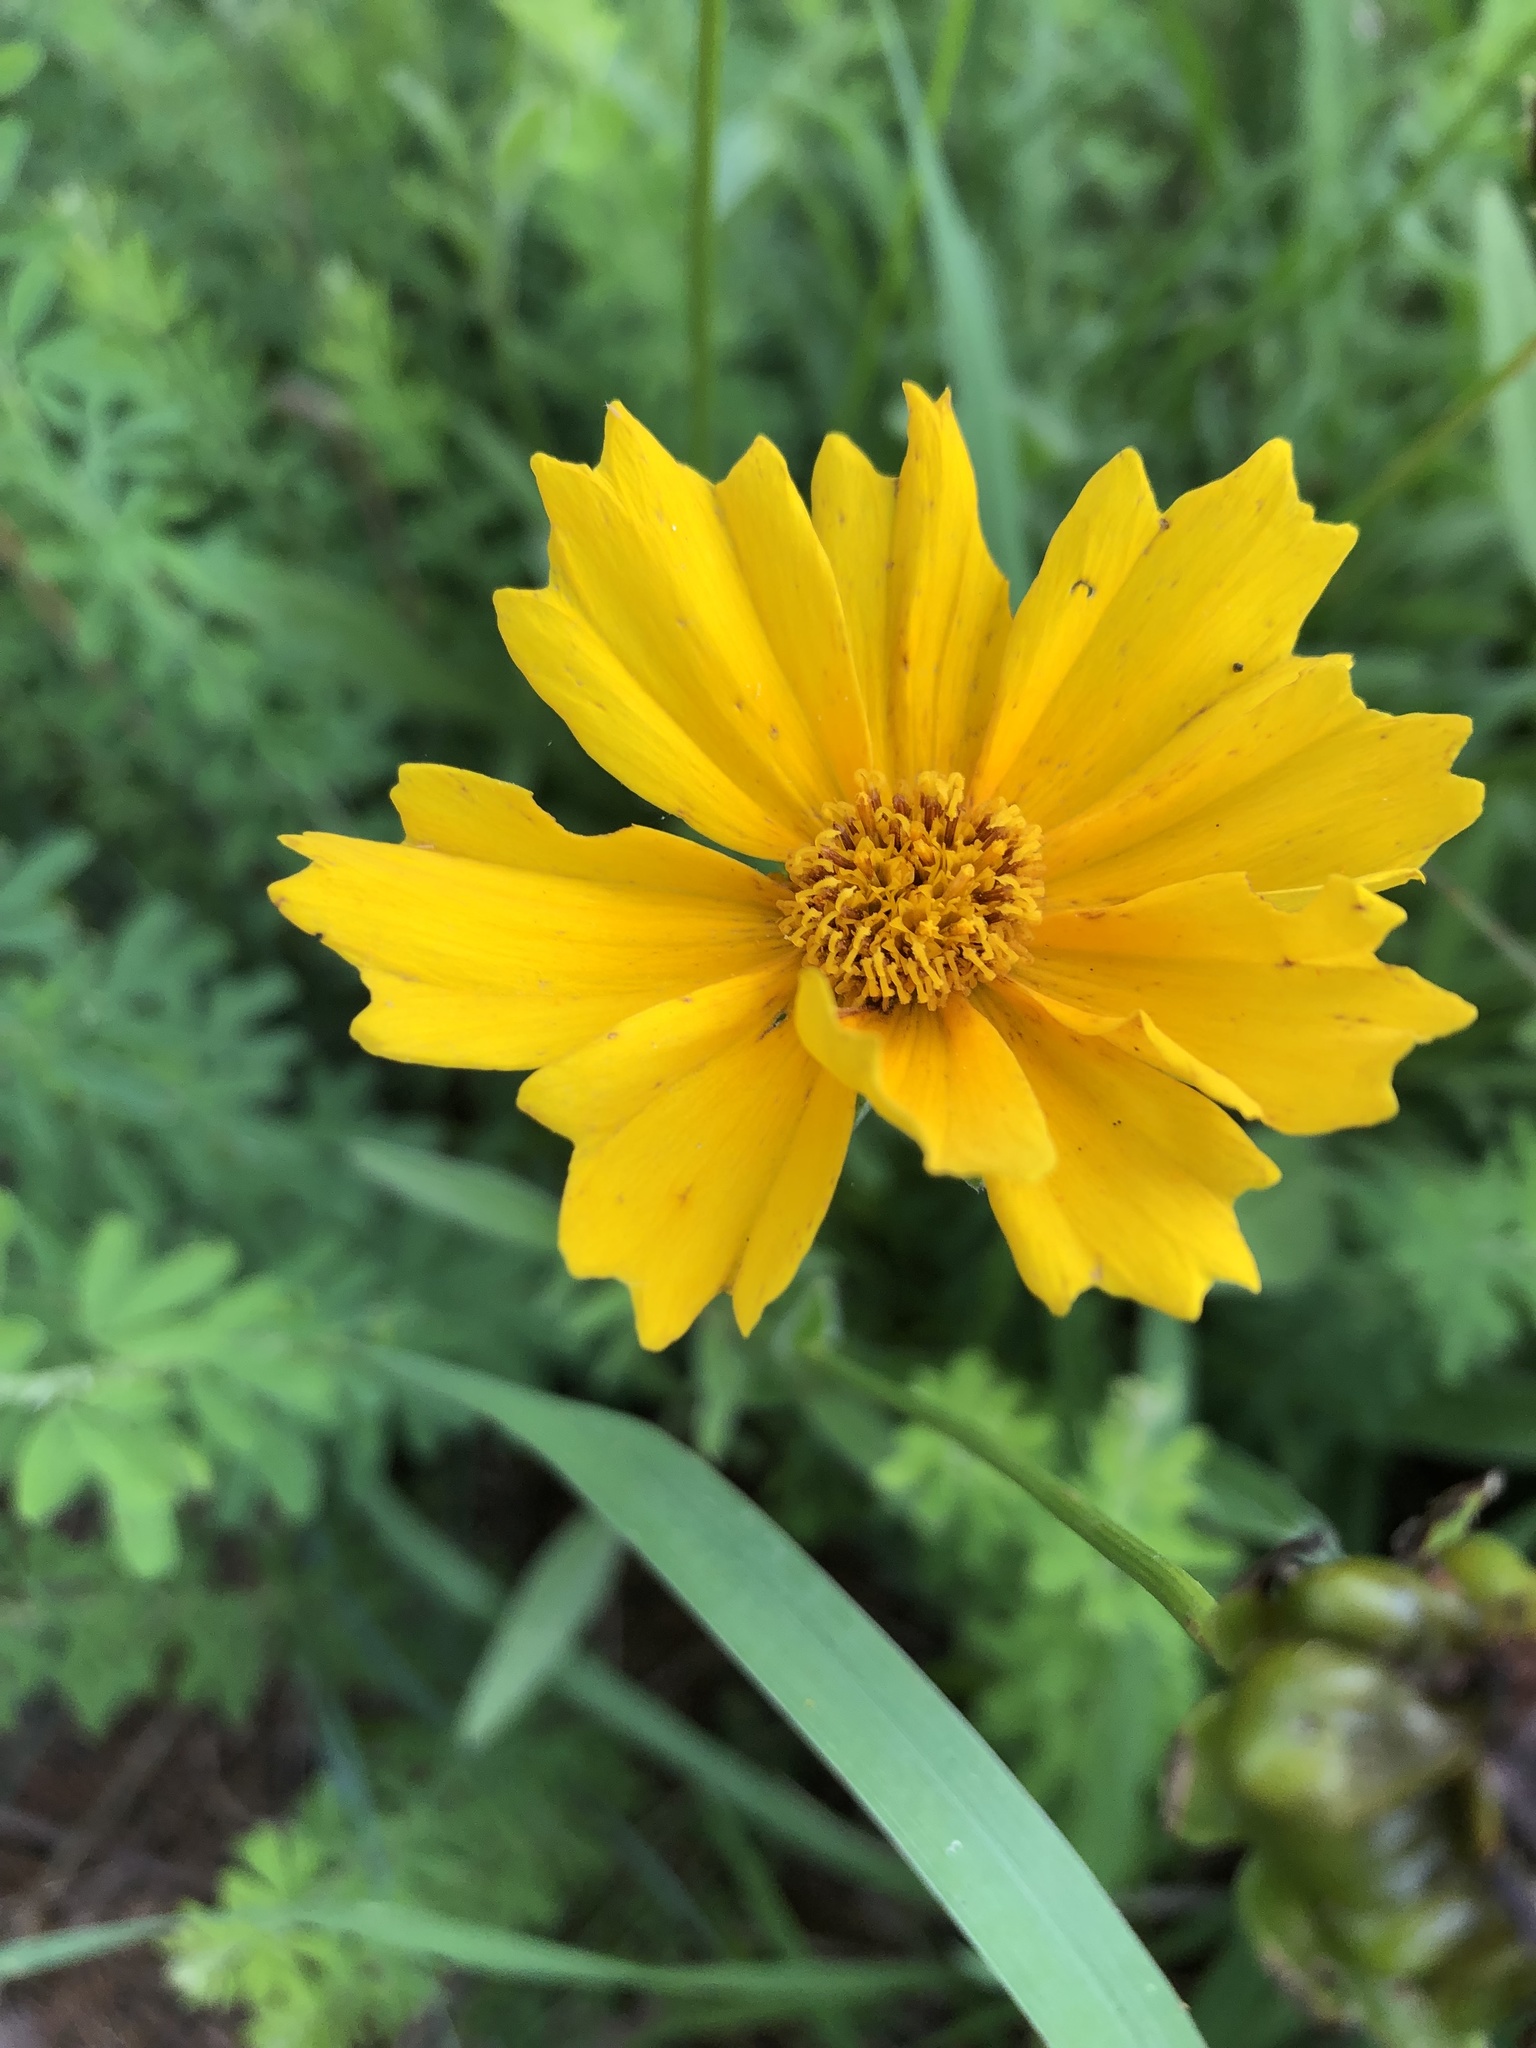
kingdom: Plantae
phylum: Tracheophyta
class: Magnoliopsida
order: Asterales
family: Asteraceae
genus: Coreopsis
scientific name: Coreopsis lanceolata
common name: Garden coreopsis
